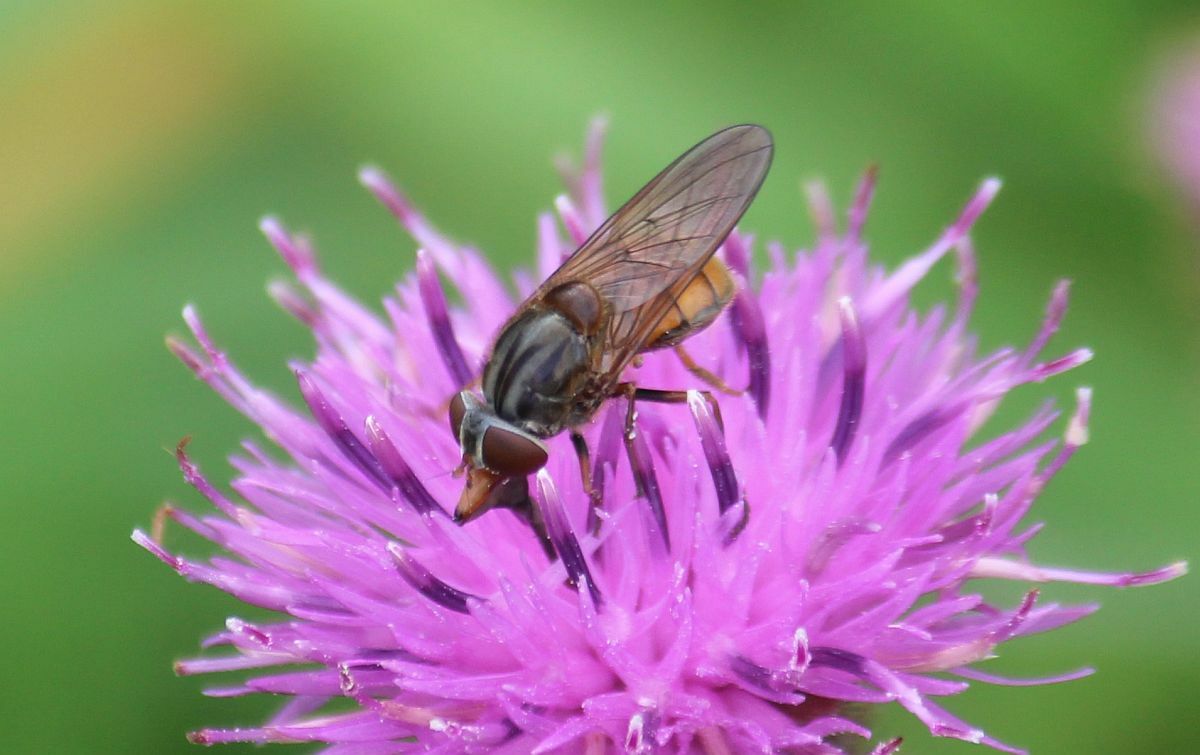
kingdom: Animalia
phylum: Arthropoda
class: Insecta
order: Diptera
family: Syrphidae
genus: Rhingia
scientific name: Rhingia campestris
